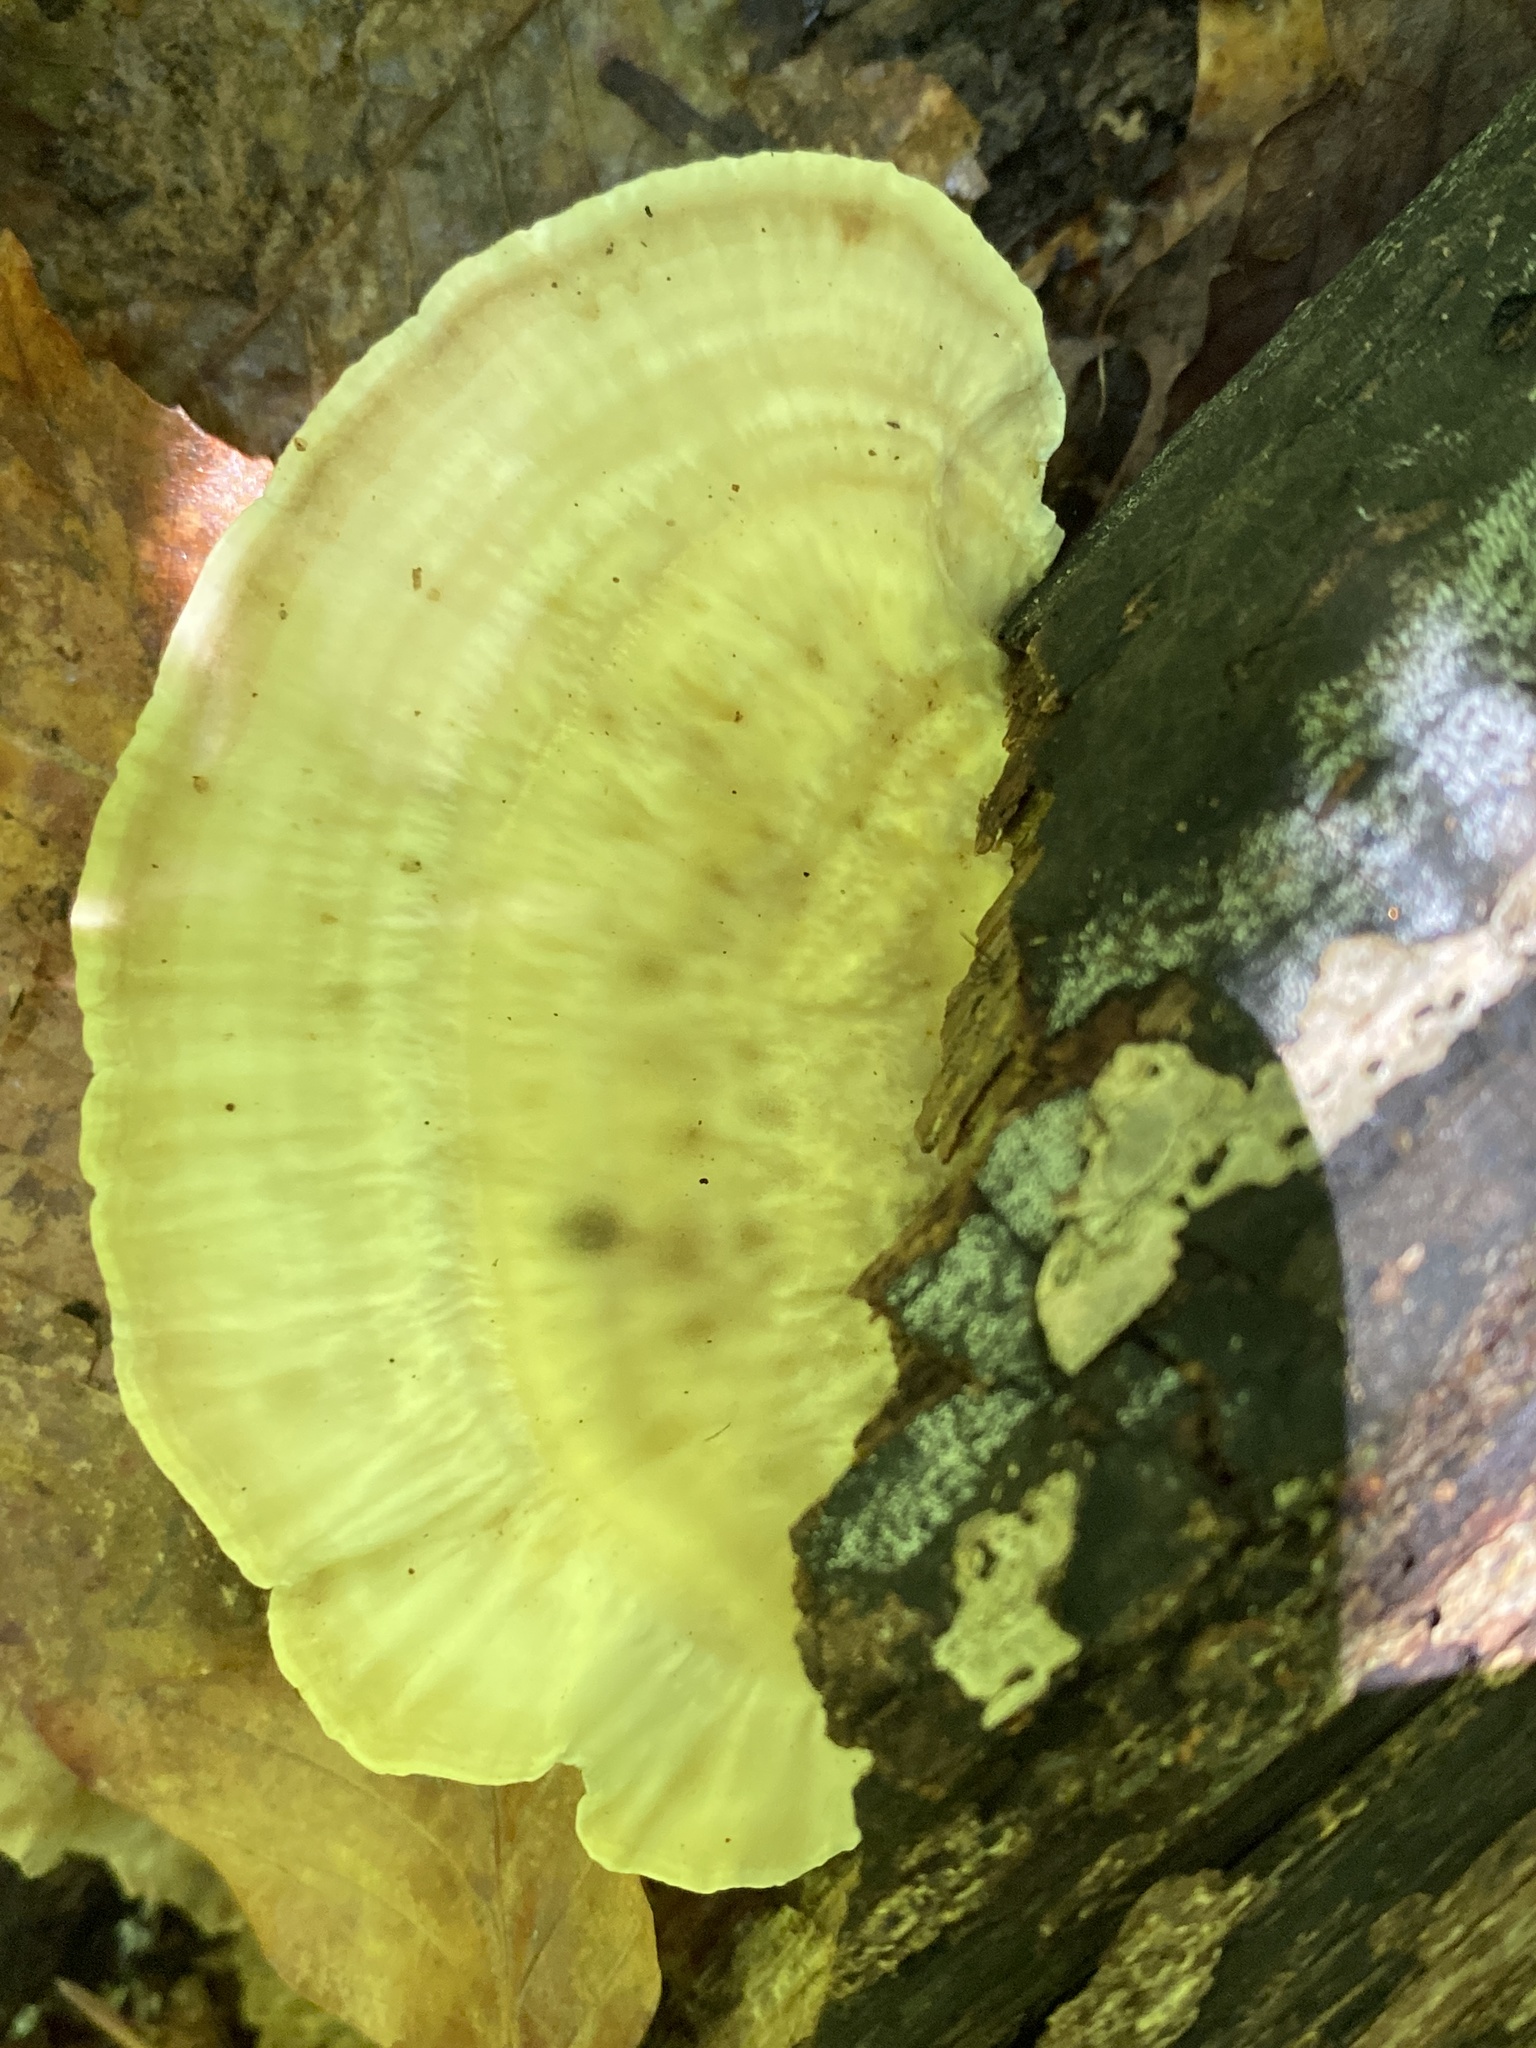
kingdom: Fungi
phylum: Basidiomycota
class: Agaricomycetes
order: Polyporales
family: Polyporaceae
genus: Trametes
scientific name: Trametes lactinea
